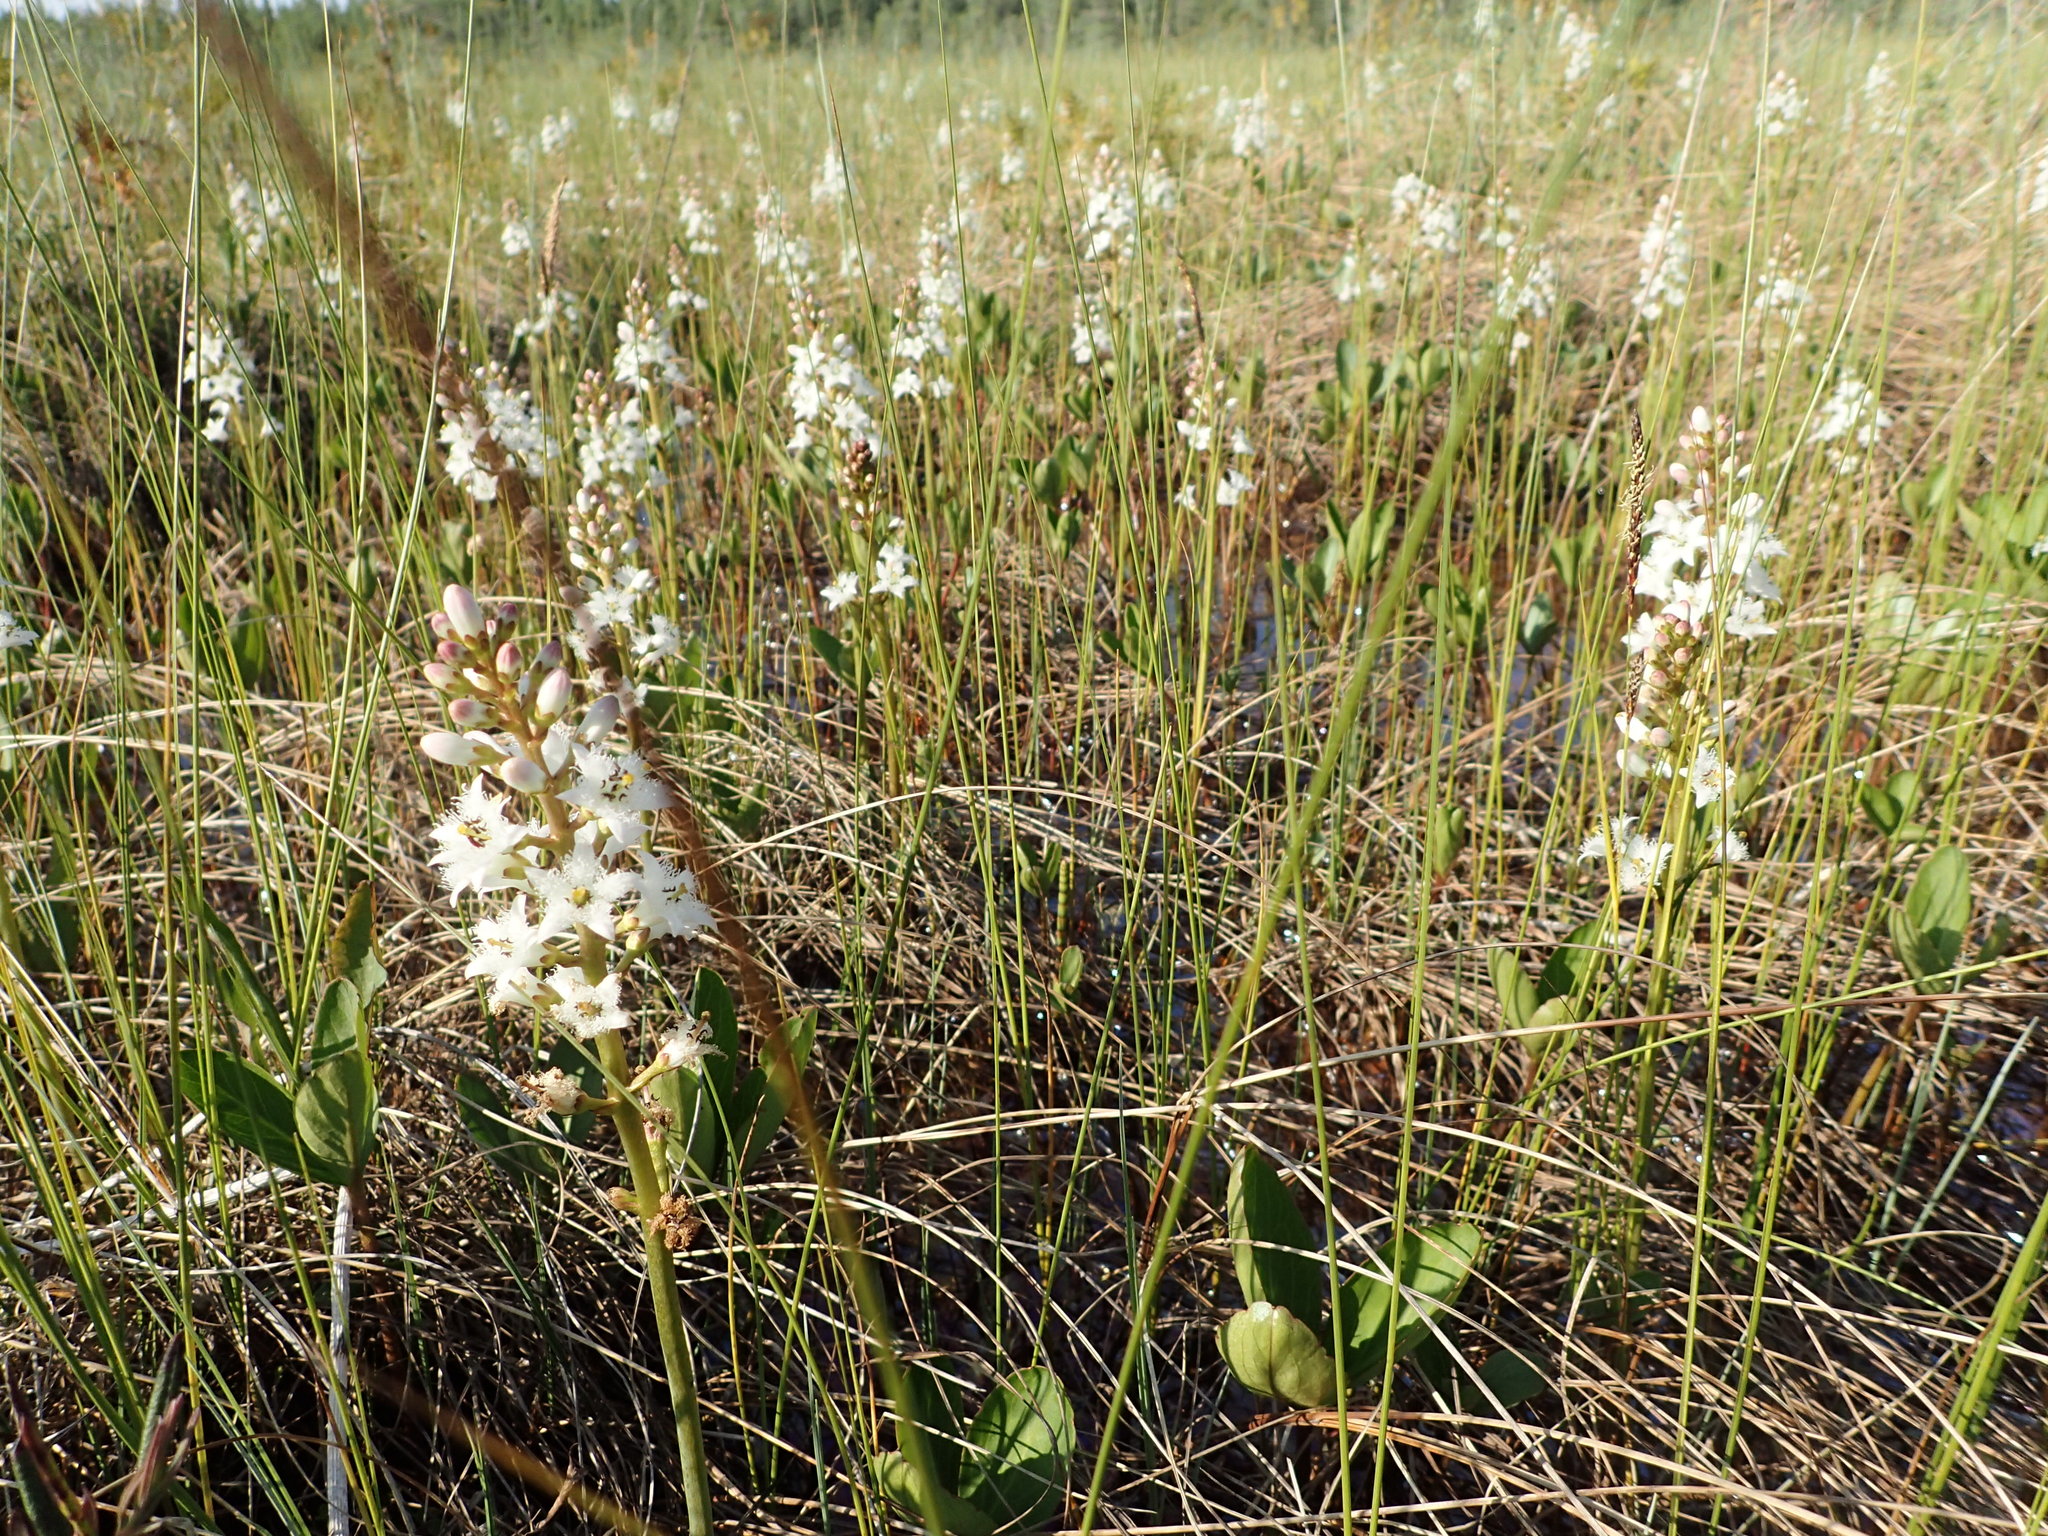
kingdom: Plantae
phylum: Tracheophyta
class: Magnoliopsida
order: Asterales
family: Menyanthaceae
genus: Menyanthes
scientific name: Menyanthes trifoliata
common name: Bogbean
